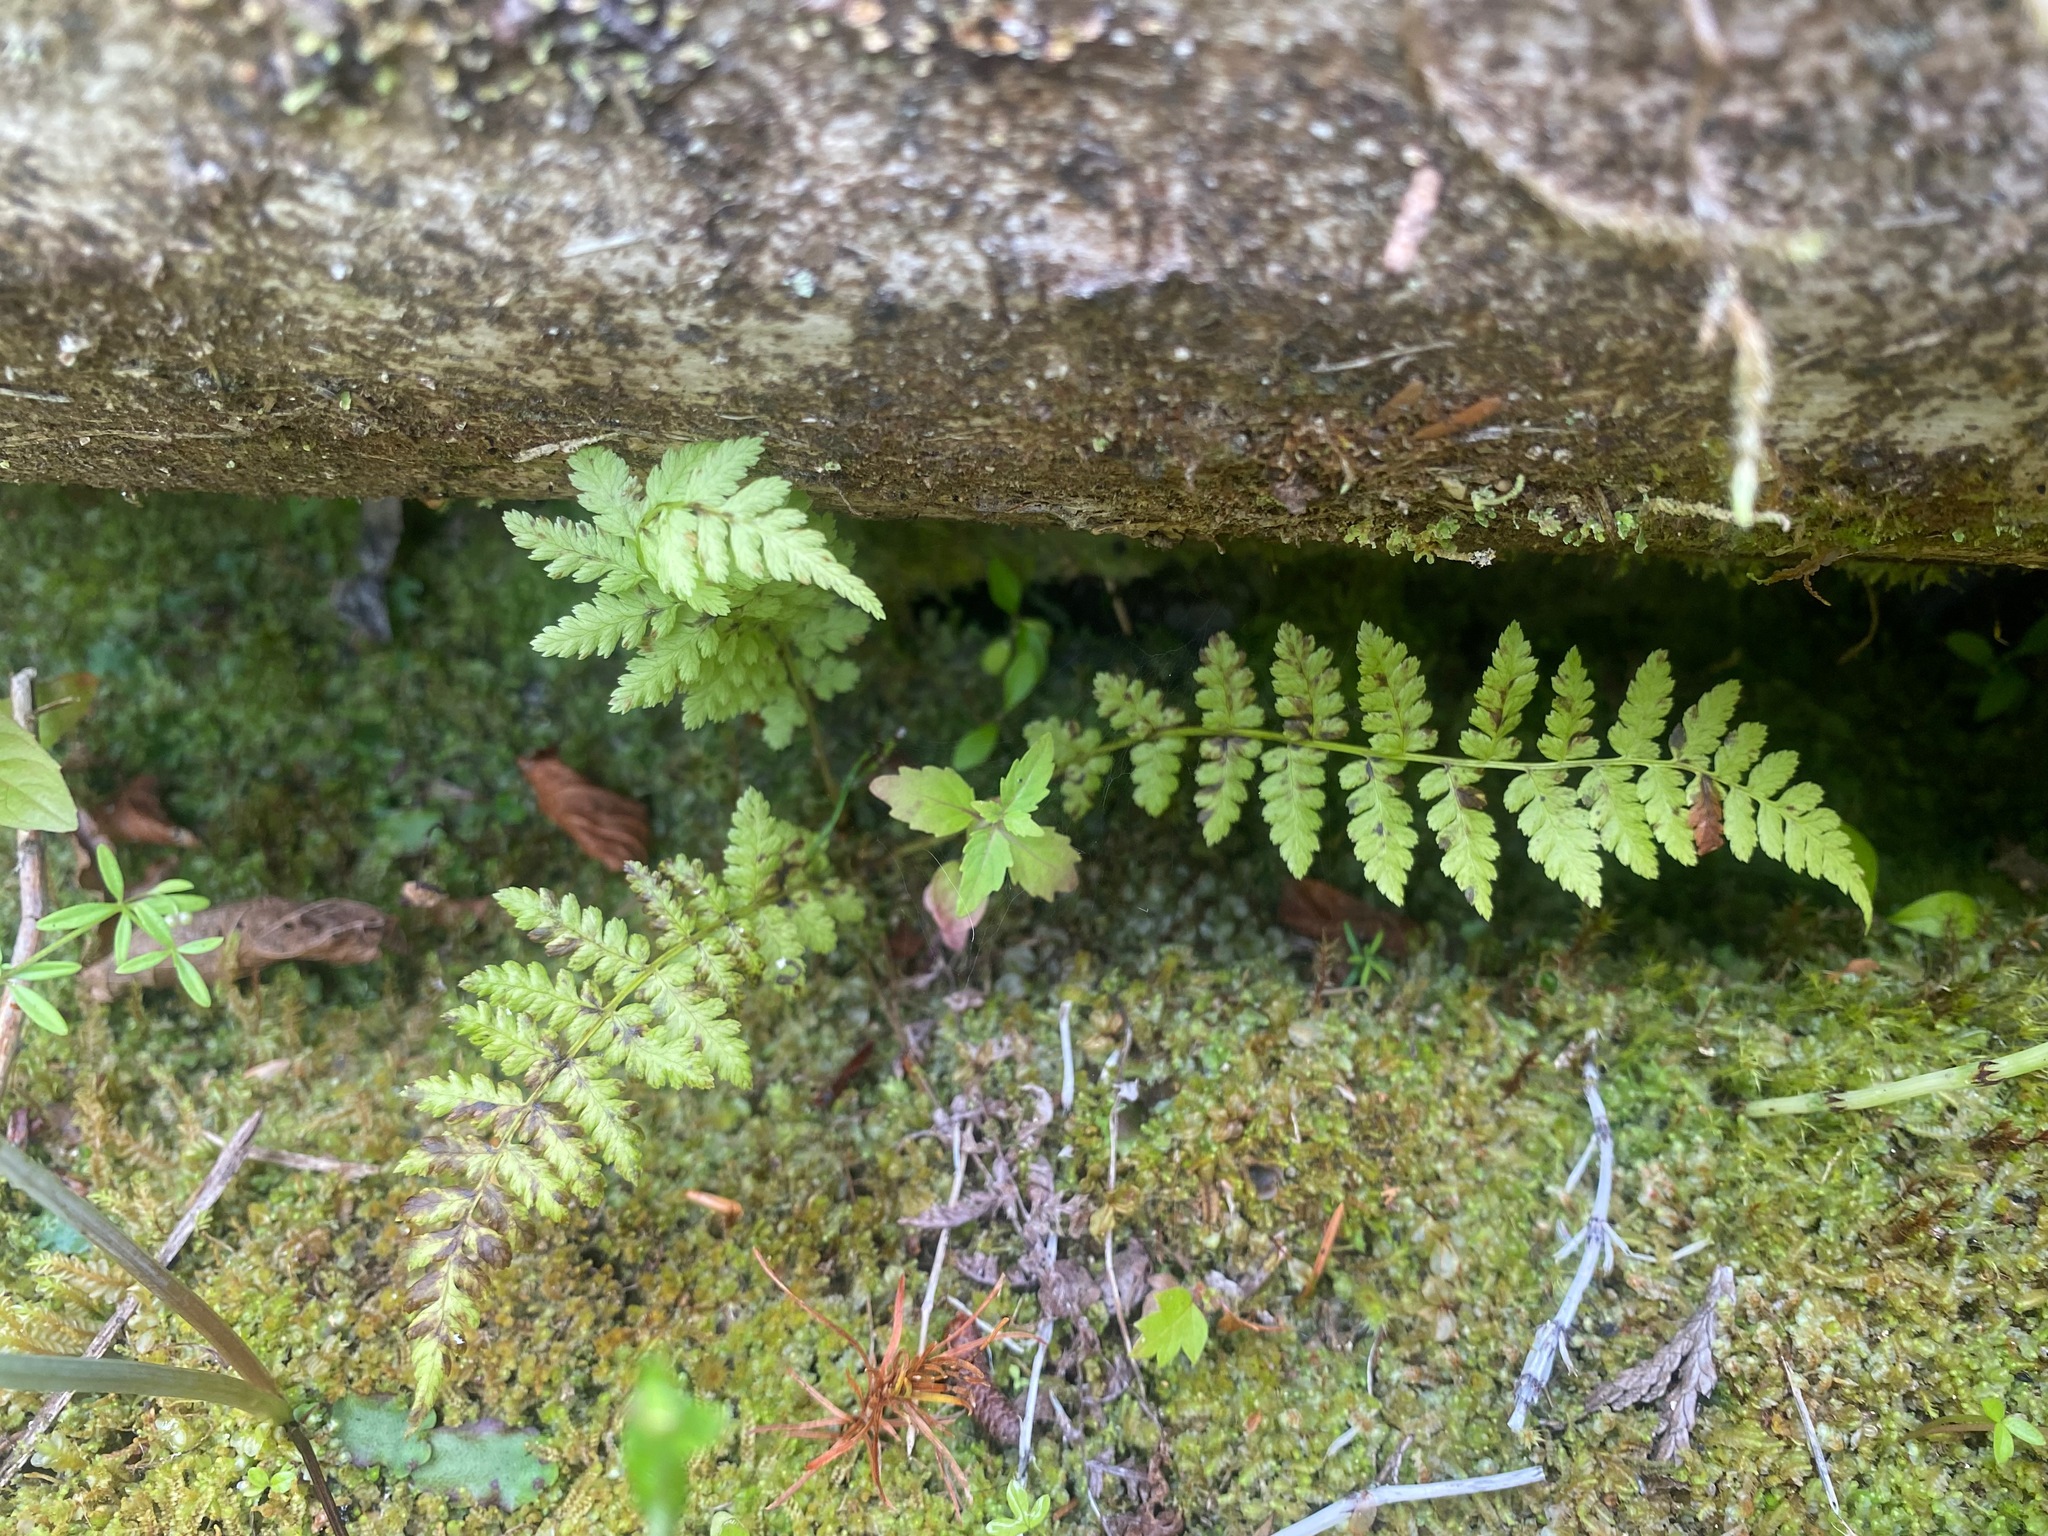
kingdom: Plantae
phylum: Tracheophyta
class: Polypodiopsida
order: Polypodiales
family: Athyriaceae
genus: Athyrium
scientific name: Athyrium filix-femina
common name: Lady fern
